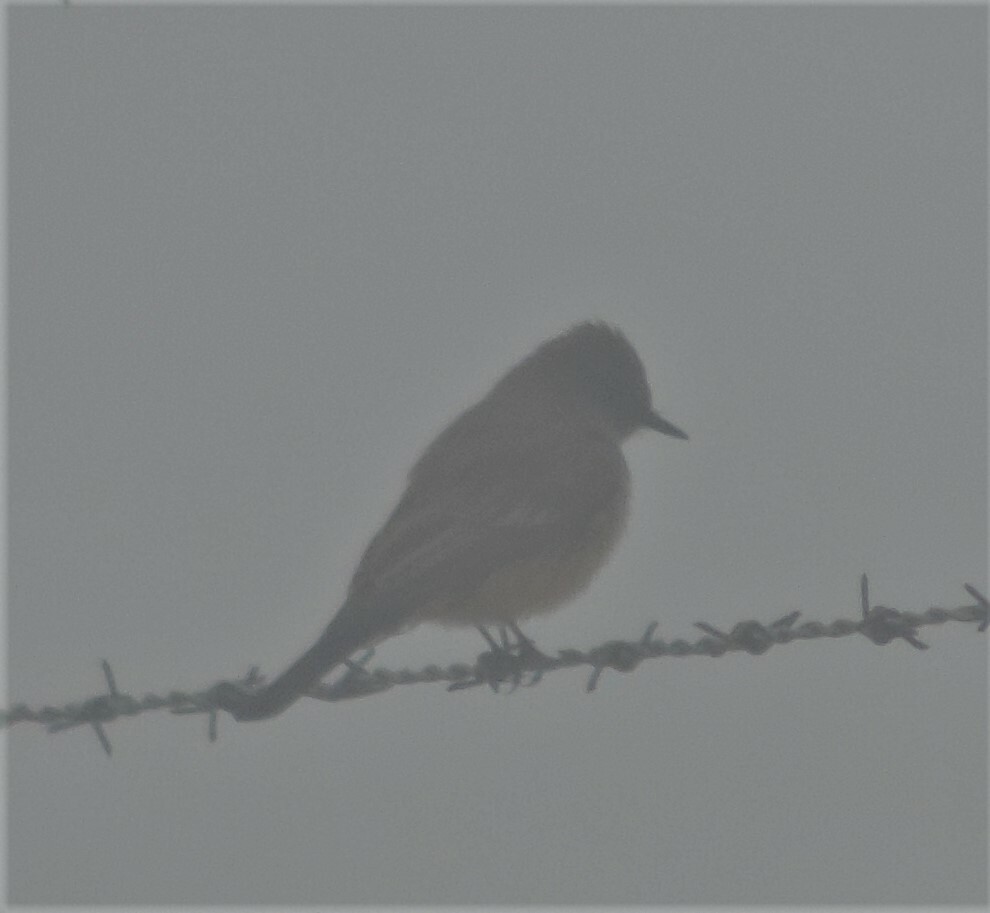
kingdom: Animalia
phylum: Chordata
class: Aves
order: Passeriformes
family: Tyrannidae
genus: Sayornis
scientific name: Sayornis saya
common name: Say's phoebe
